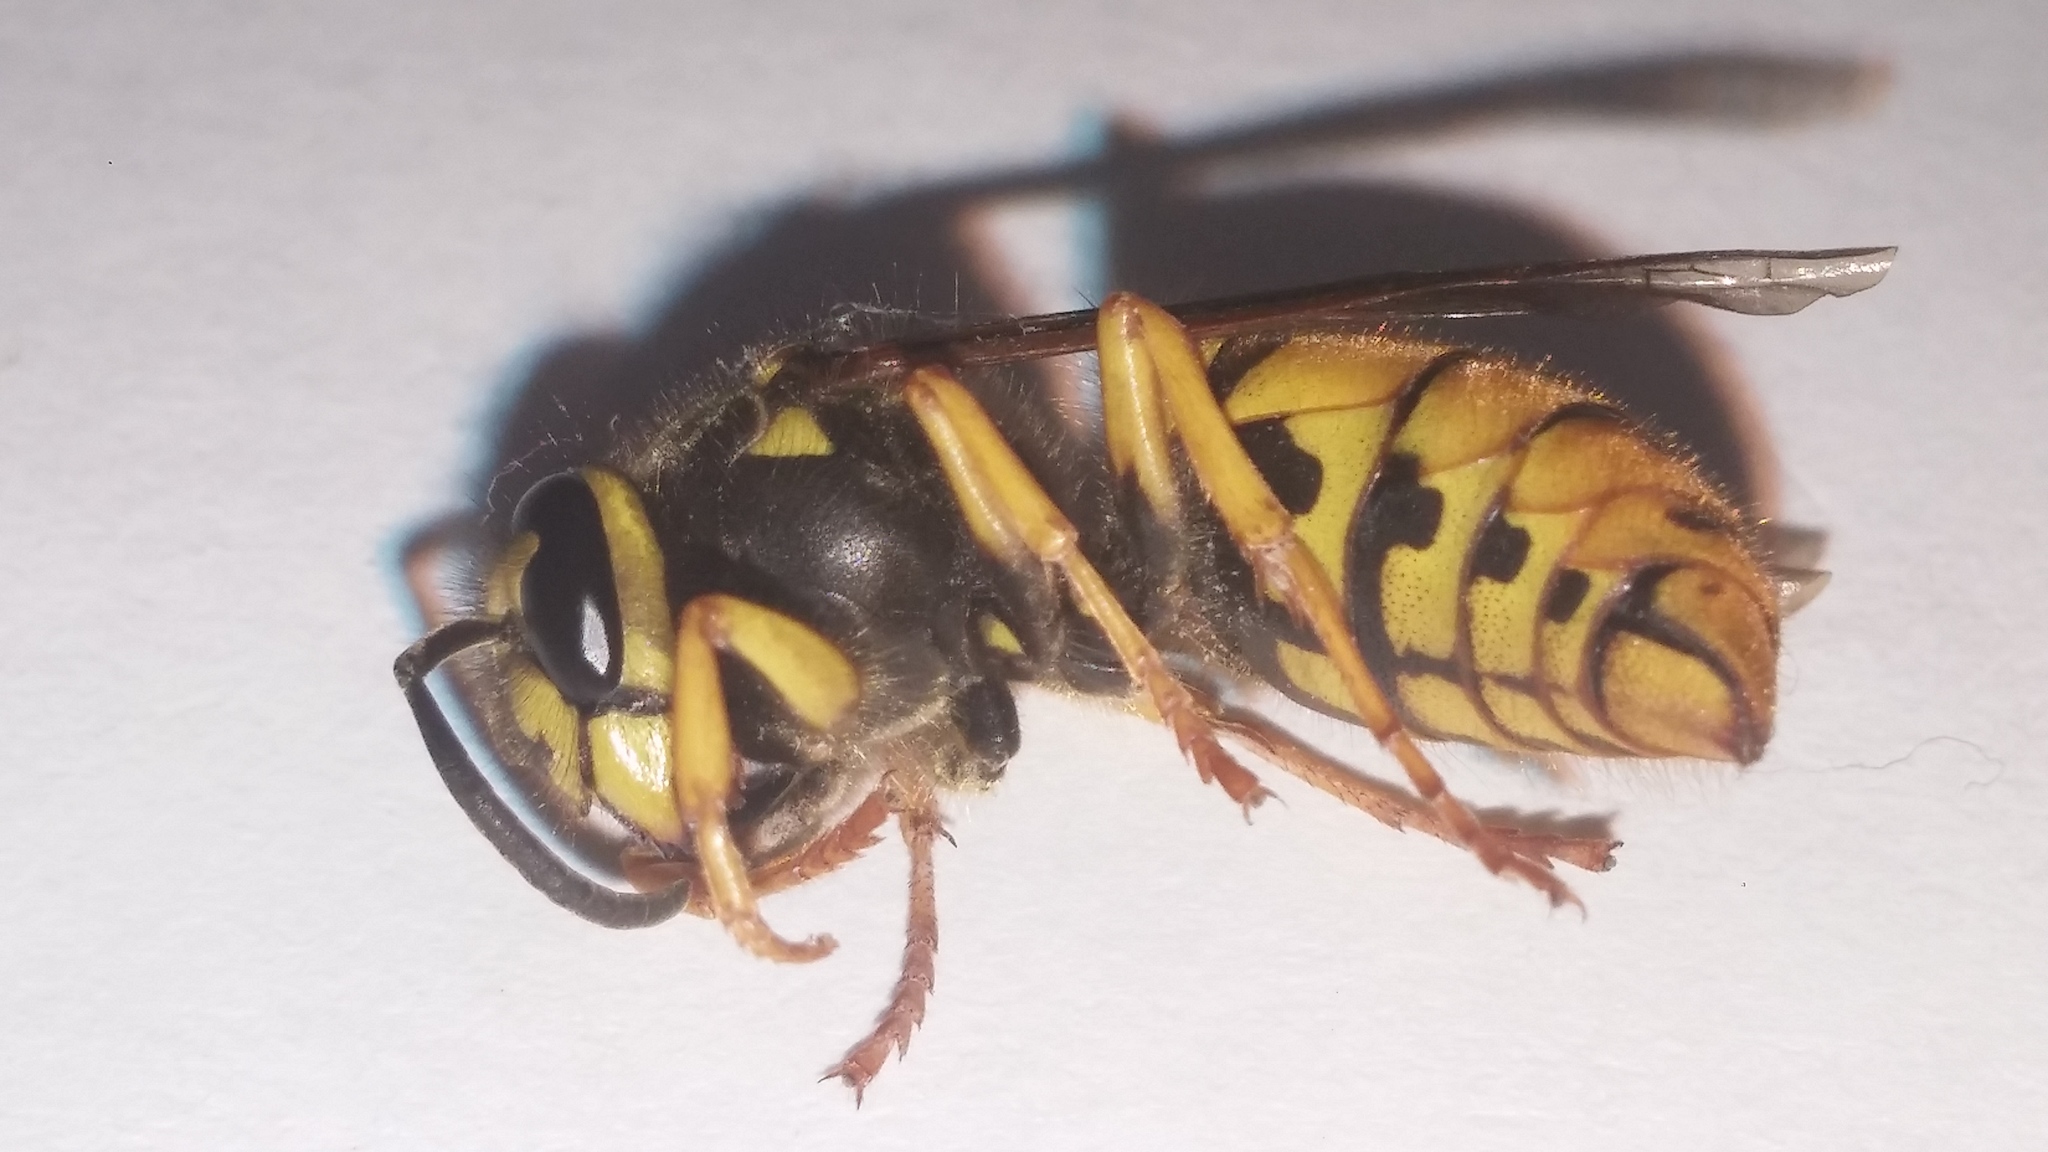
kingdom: Animalia
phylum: Arthropoda
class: Insecta
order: Hymenoptera
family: Vespidae
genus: Vespula
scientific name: Vespula maculifrons
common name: Eastern yellowjacket
